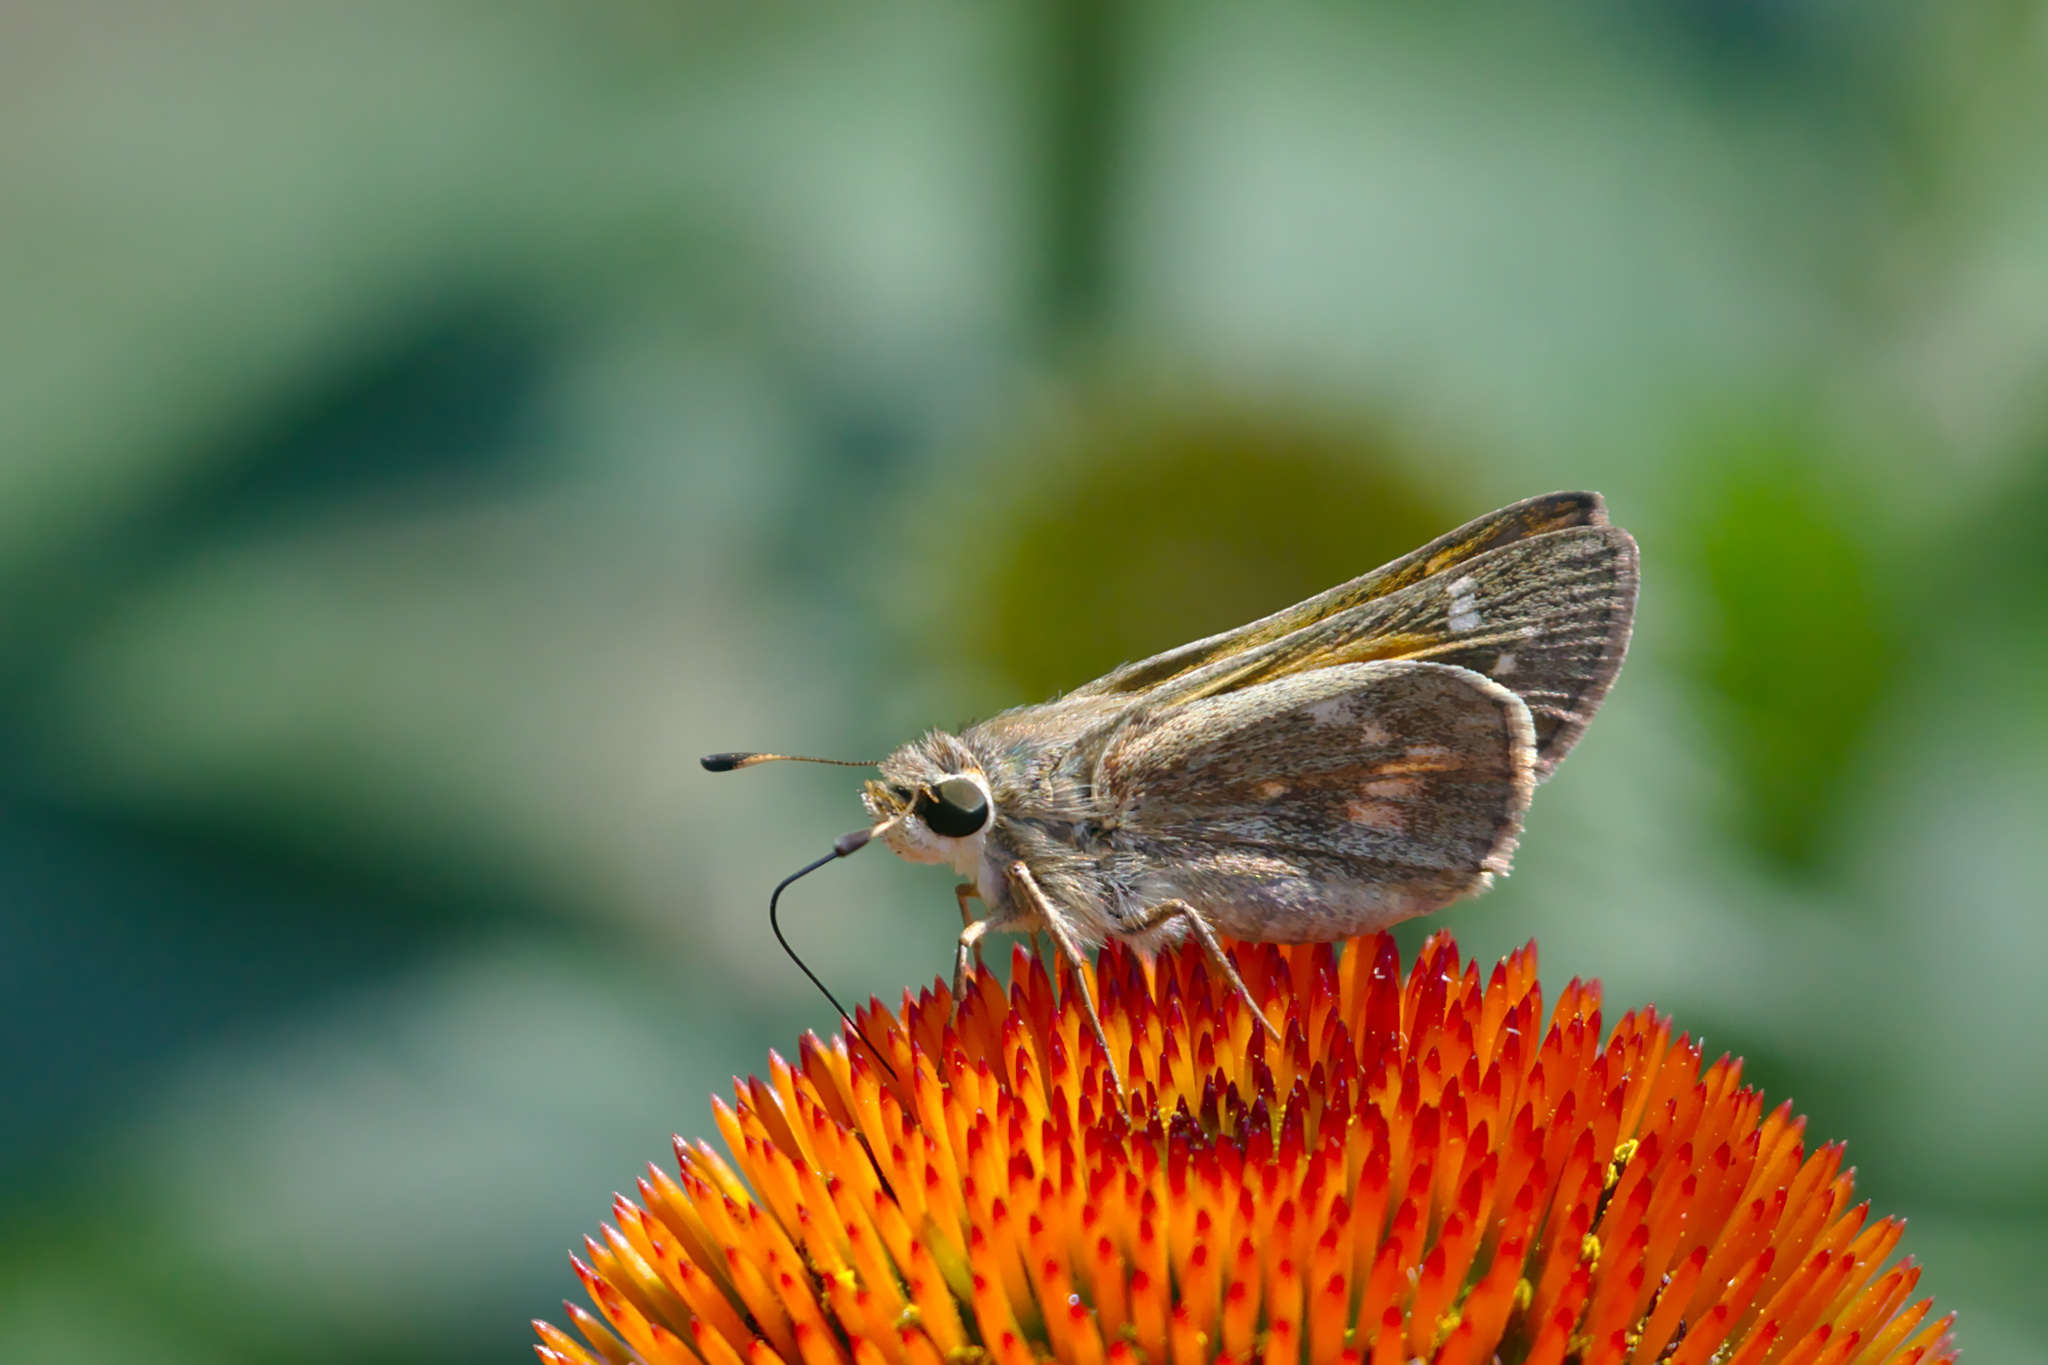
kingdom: Animalia
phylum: Arthropoda
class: Insecta
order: Lepidoptera
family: Hesperiidae
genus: Atalopedes
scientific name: Atalopedes
